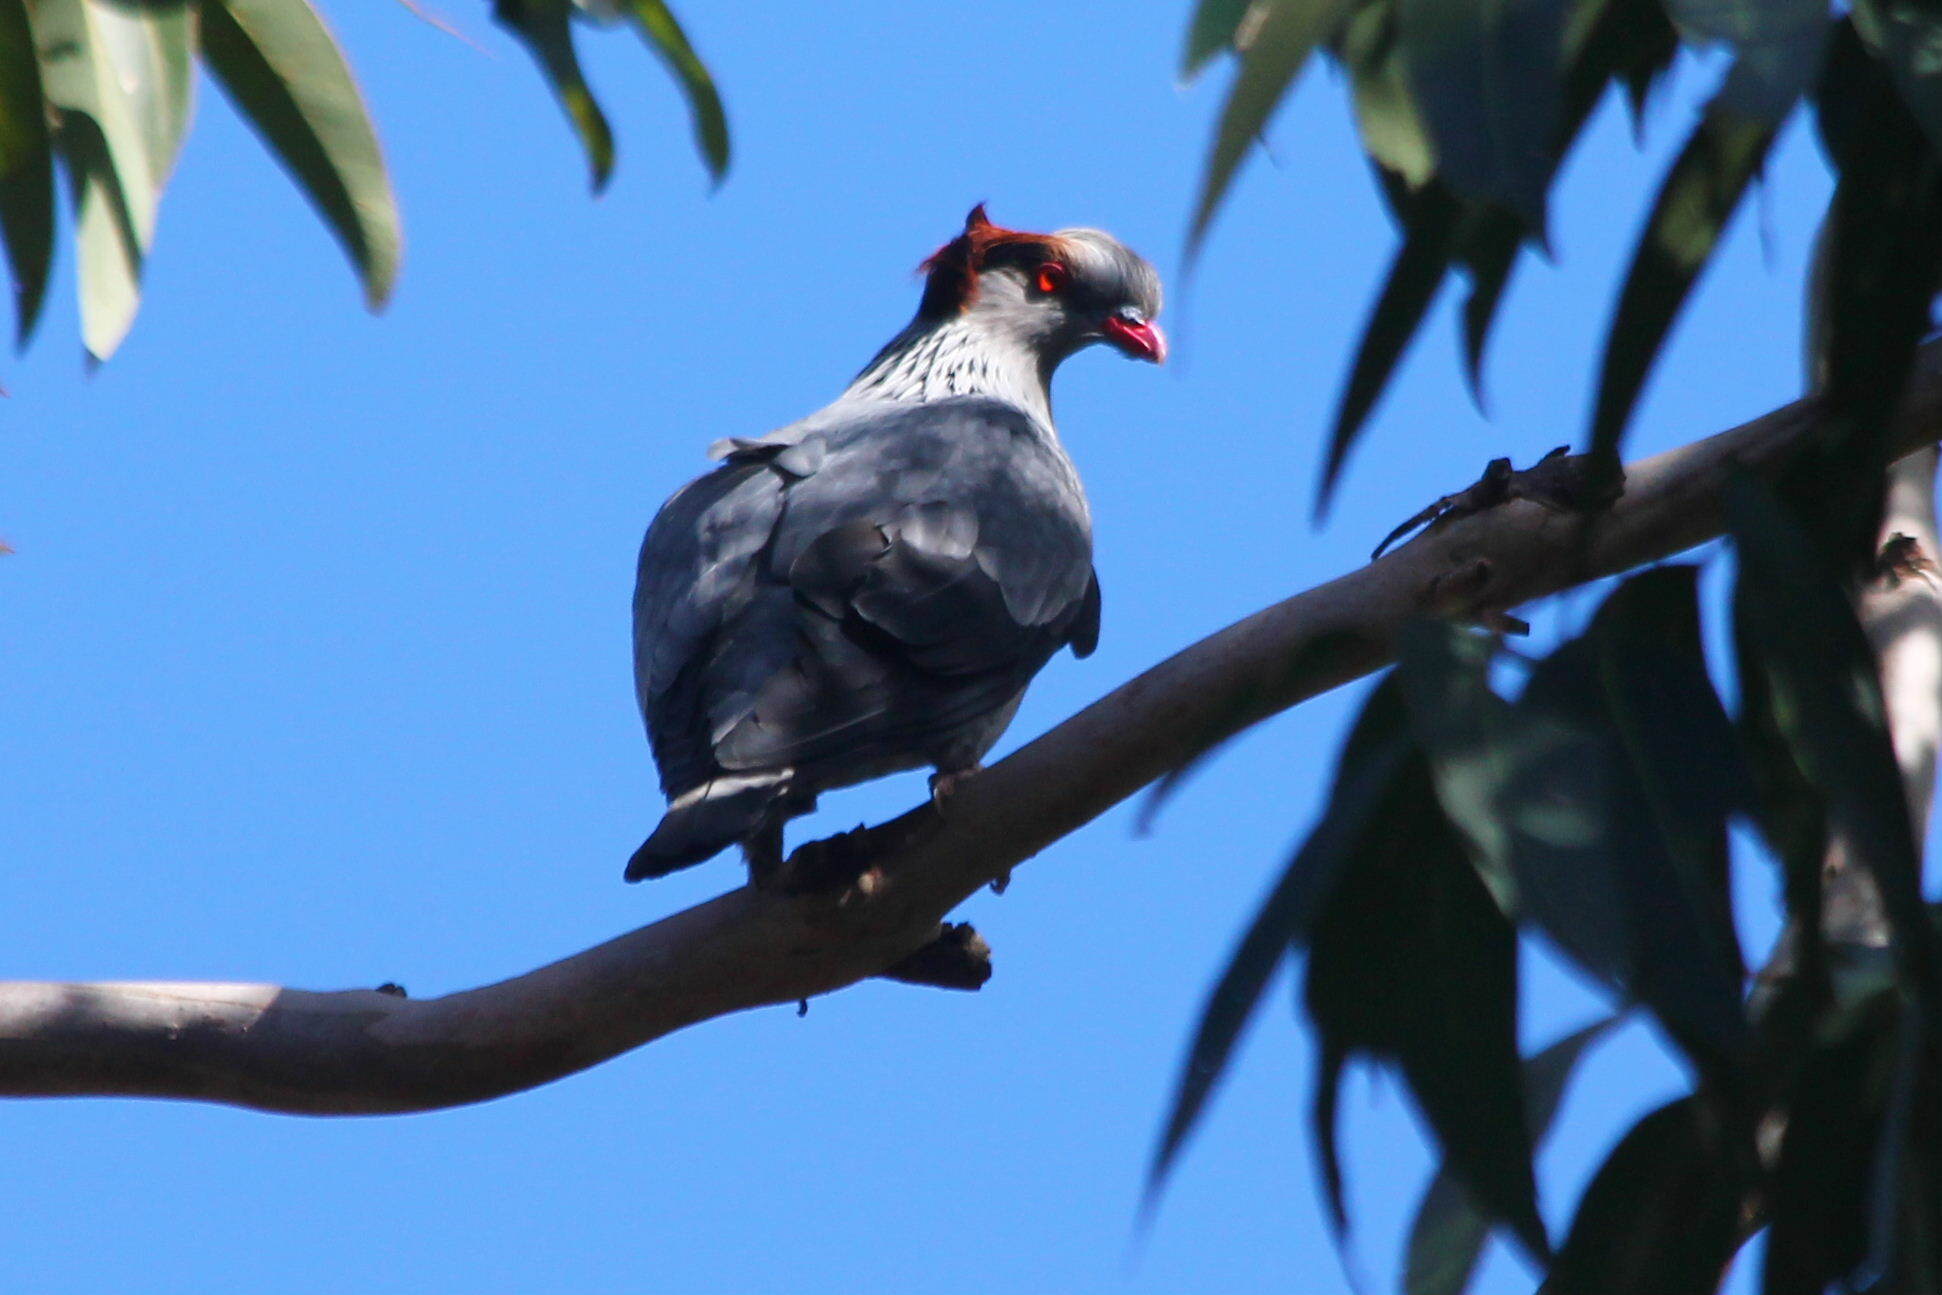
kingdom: Animalia
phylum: Chordata
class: Aves
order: Columbiformes
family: Columbidae
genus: Lopholaimus
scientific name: Lopholaimus antarcticus
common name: Topknot pigeon
